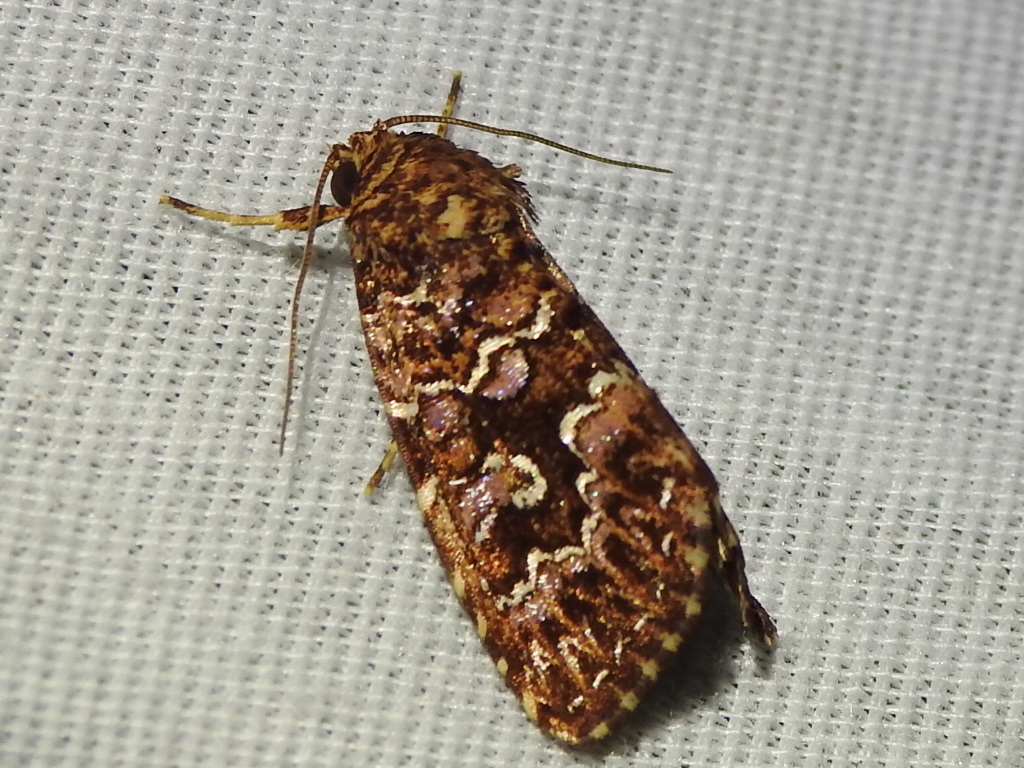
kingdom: Animalia
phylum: Arthropoda
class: Insecta
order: Lepidoptera
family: Noctuidae
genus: Callopistria
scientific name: Callopistria granitosa
